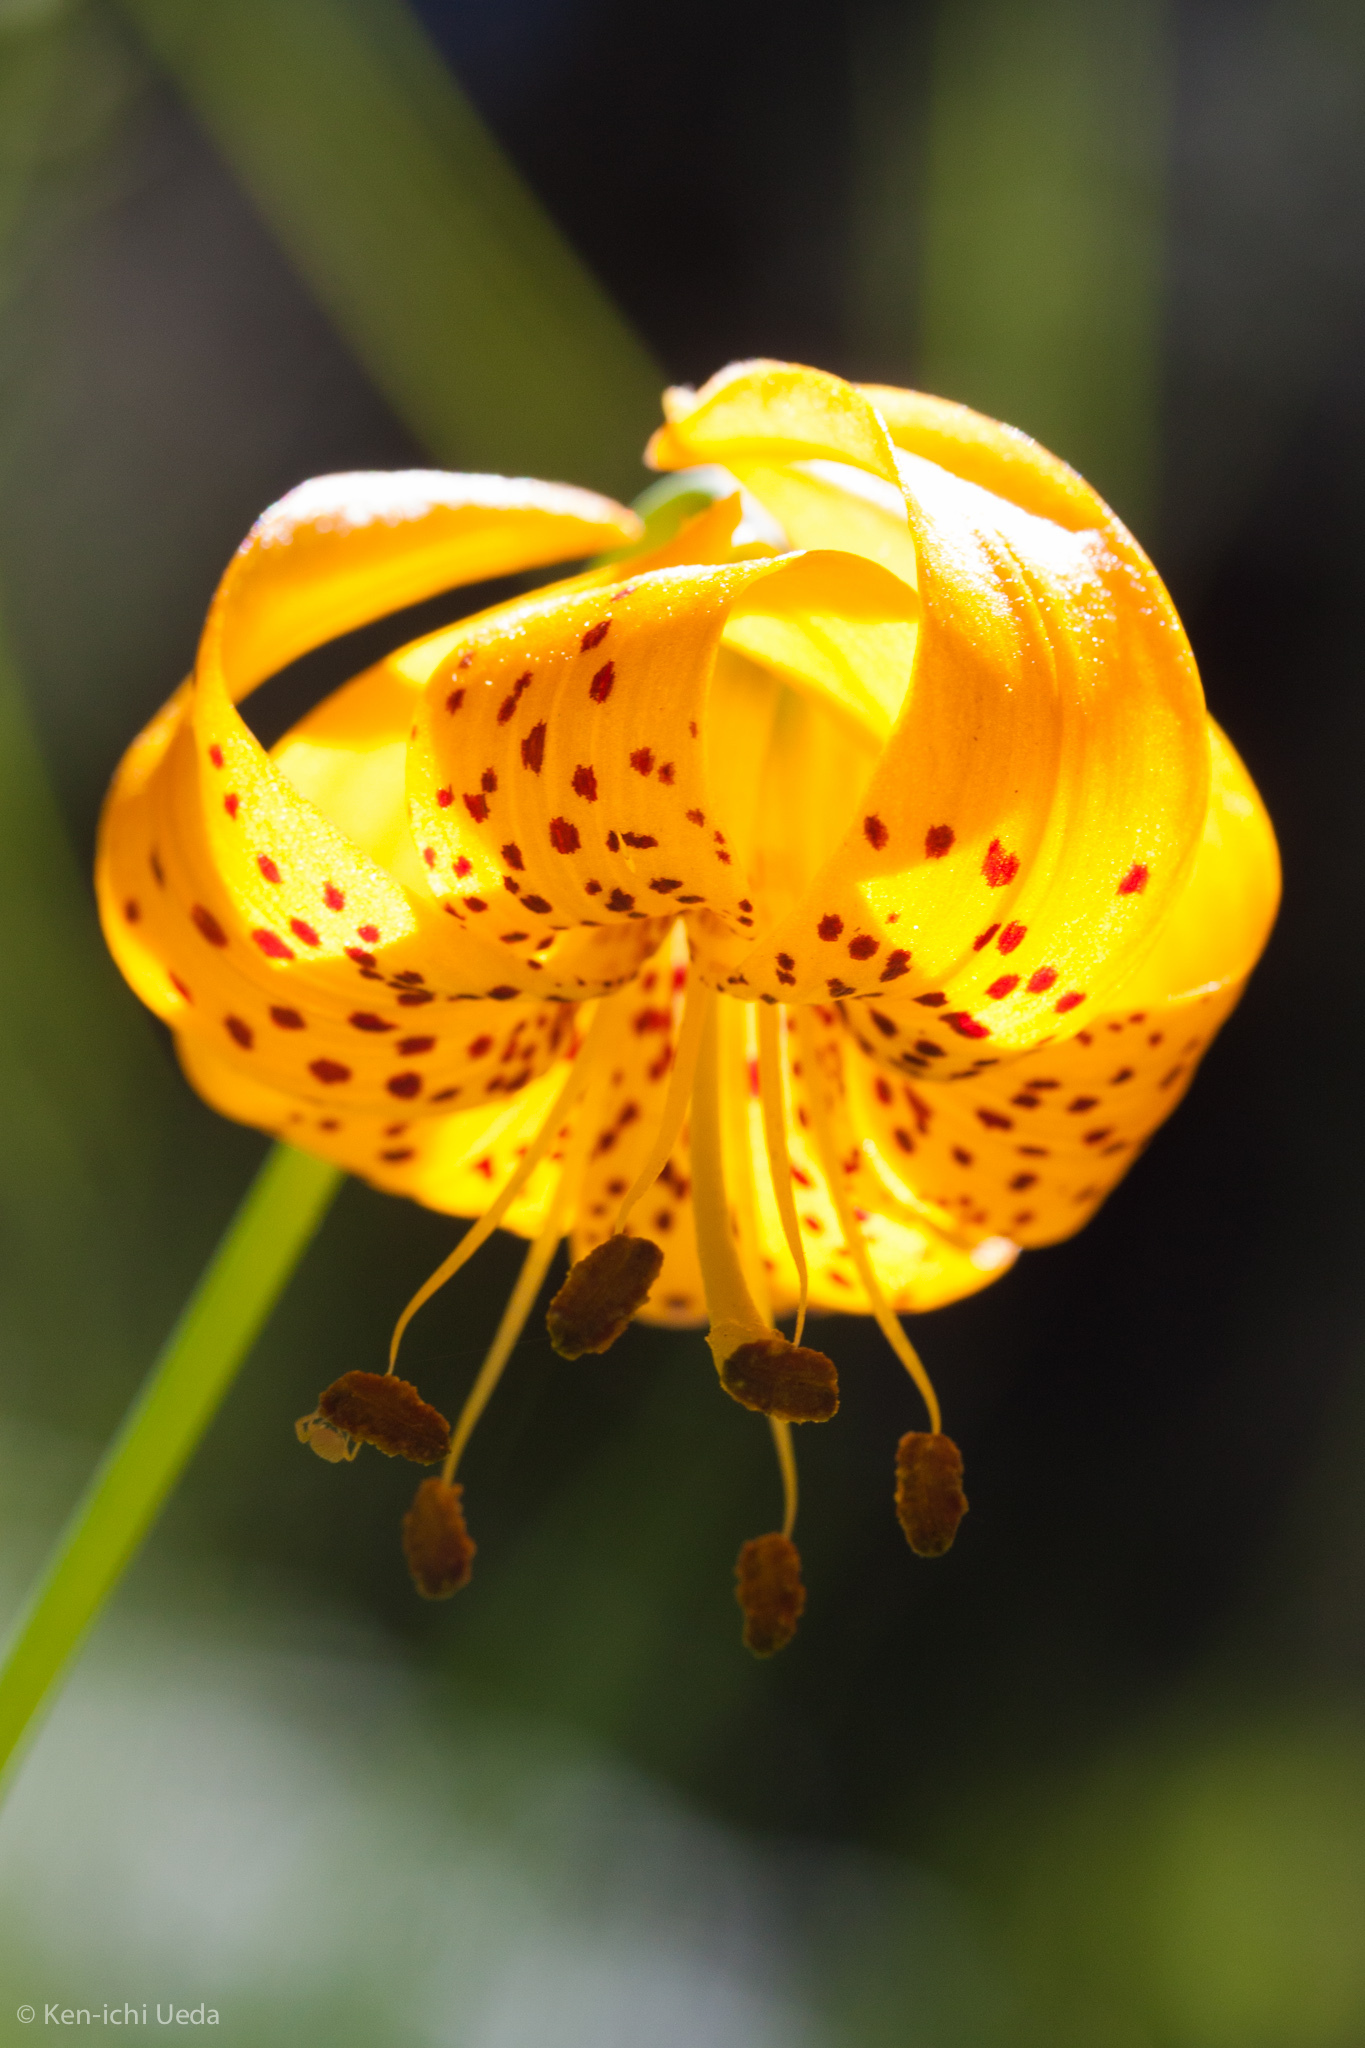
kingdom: Plantae
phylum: Tracheophyta
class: Liliopsida
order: Liliales
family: Liliaceae
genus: Lilium
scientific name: Lilium kelleyanum
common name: Kelley's lily
